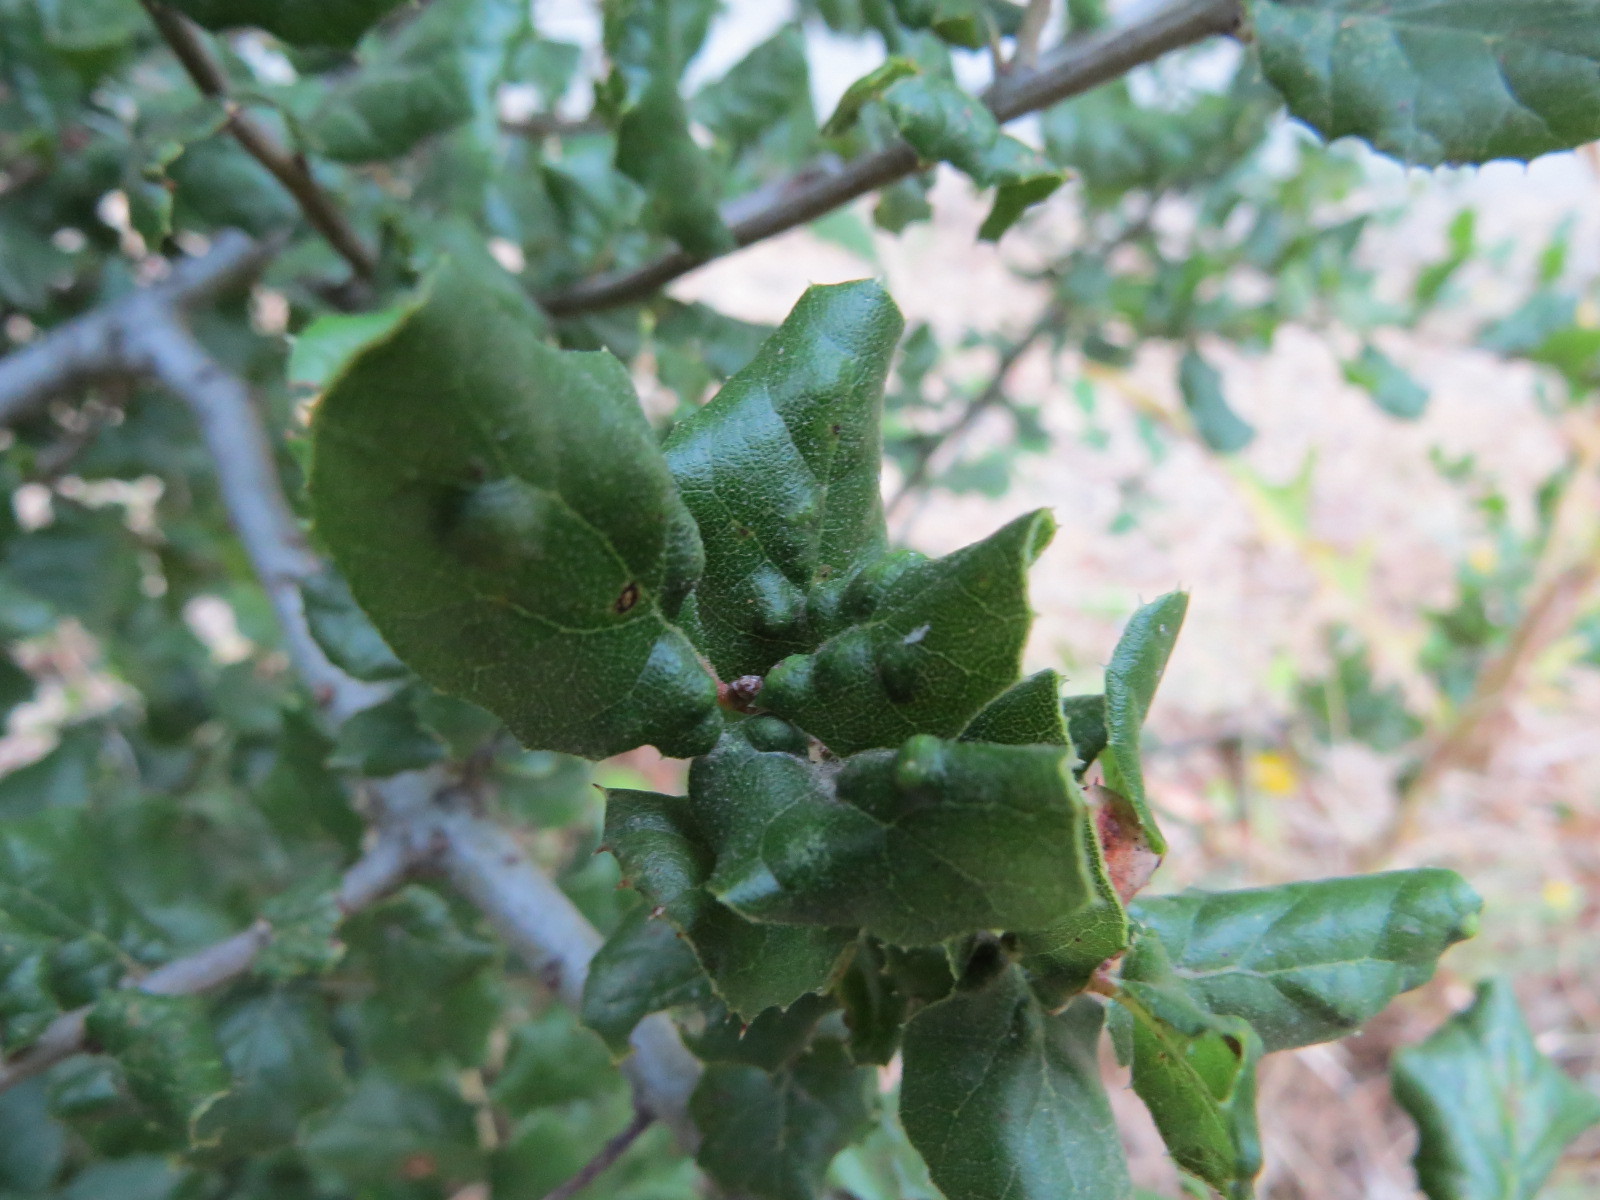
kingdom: Animalia
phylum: Arthropoda
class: Arachnida
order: Trombidiformes
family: Eriophyidae
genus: Aceria
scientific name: Aceria
